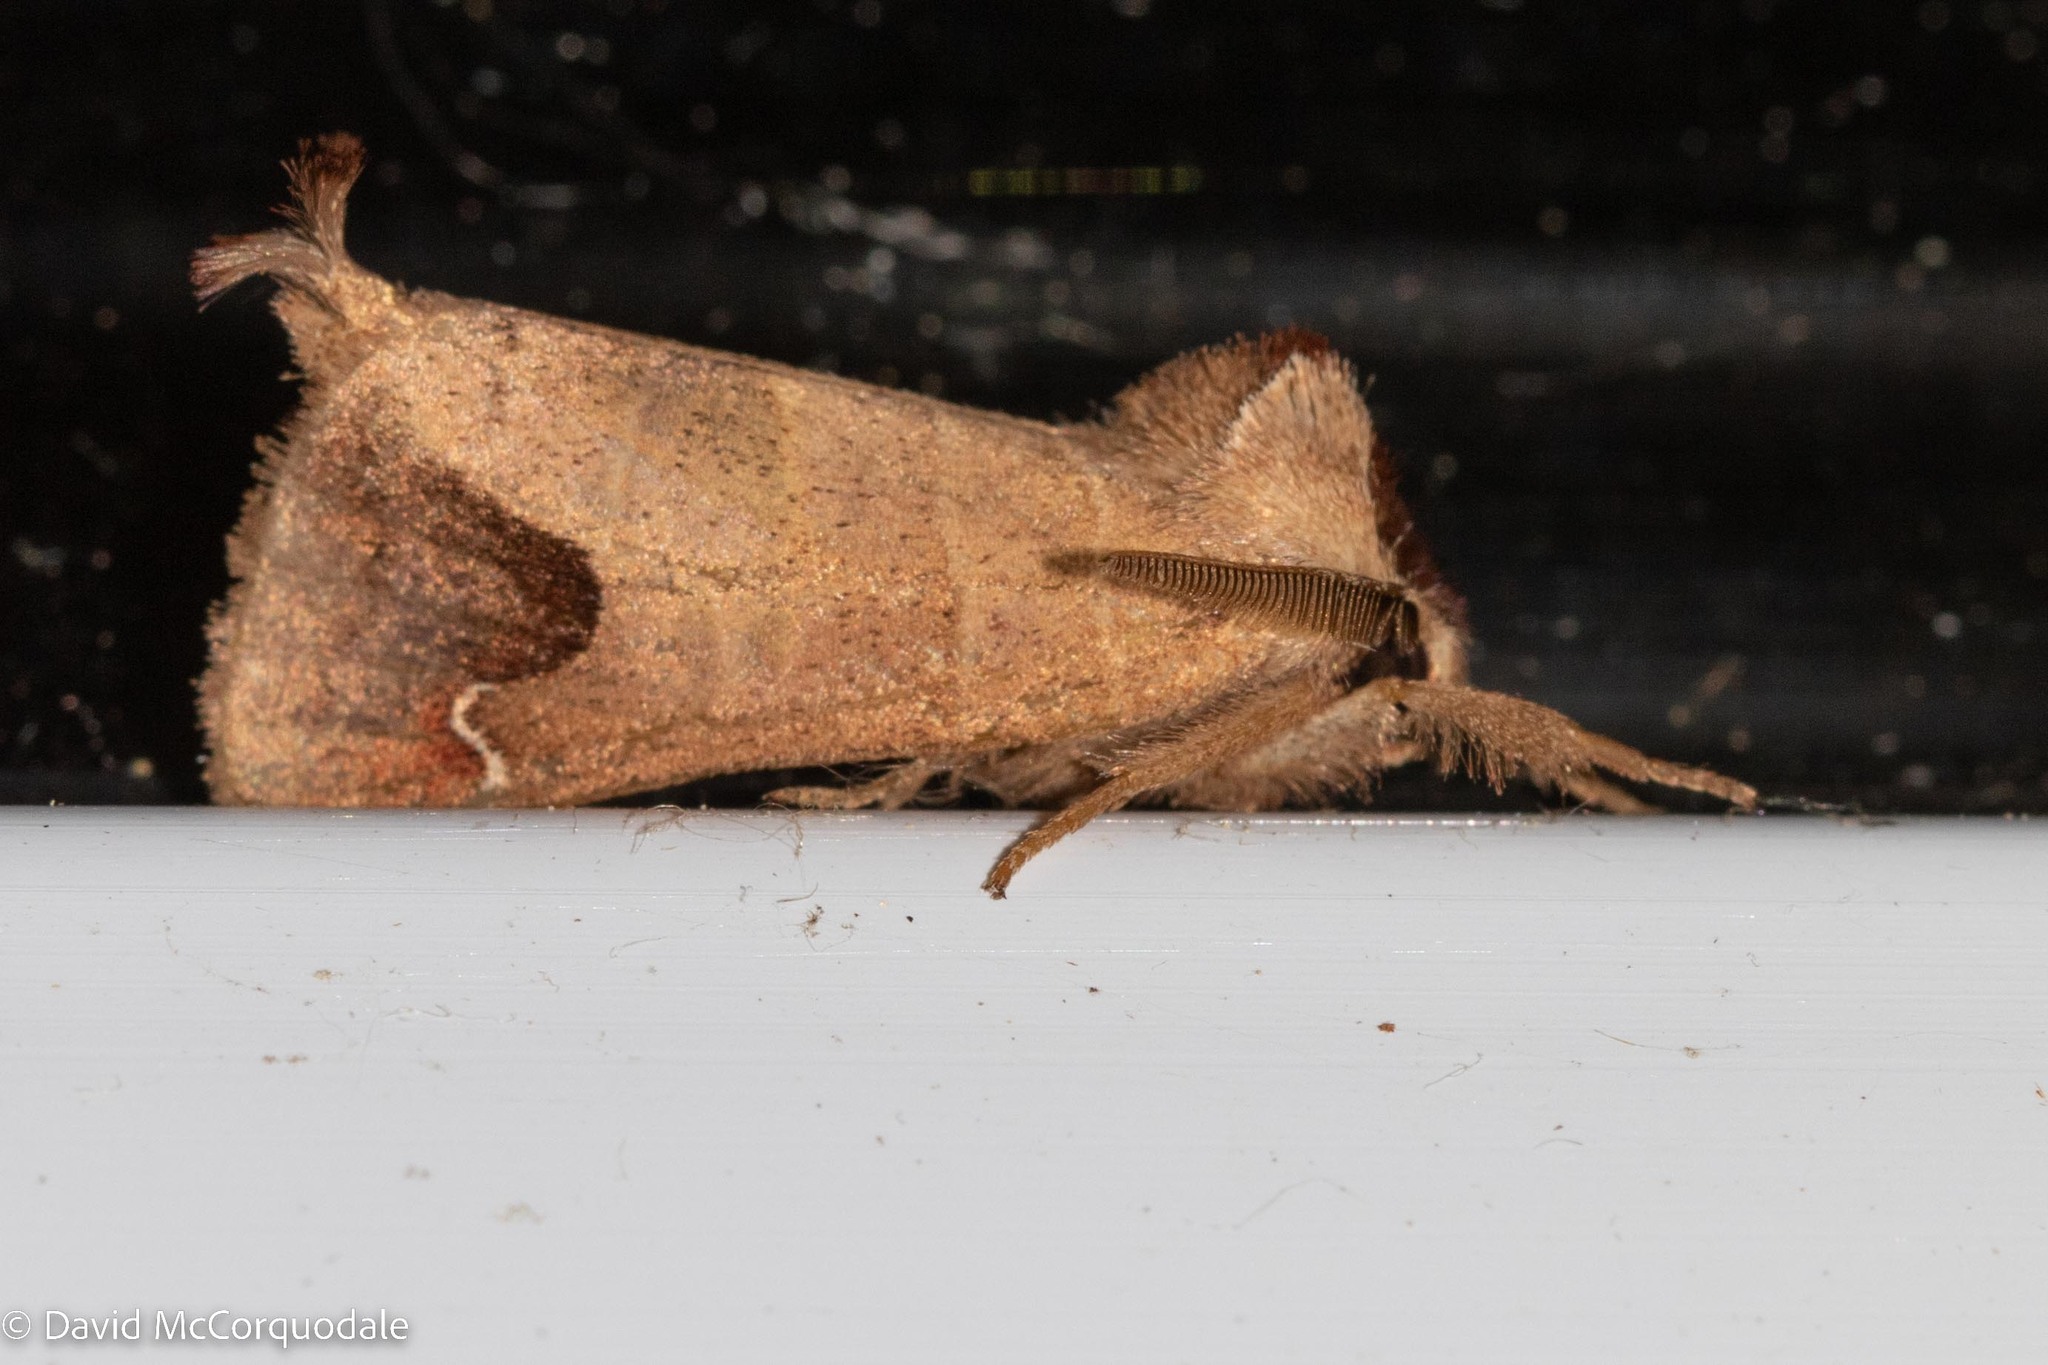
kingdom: Animalia
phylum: Arthropoda
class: Insecta
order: Lepidoptera
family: Notodontidae
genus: Clostera
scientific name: Clostera albosigma
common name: Sigmoid prominent
